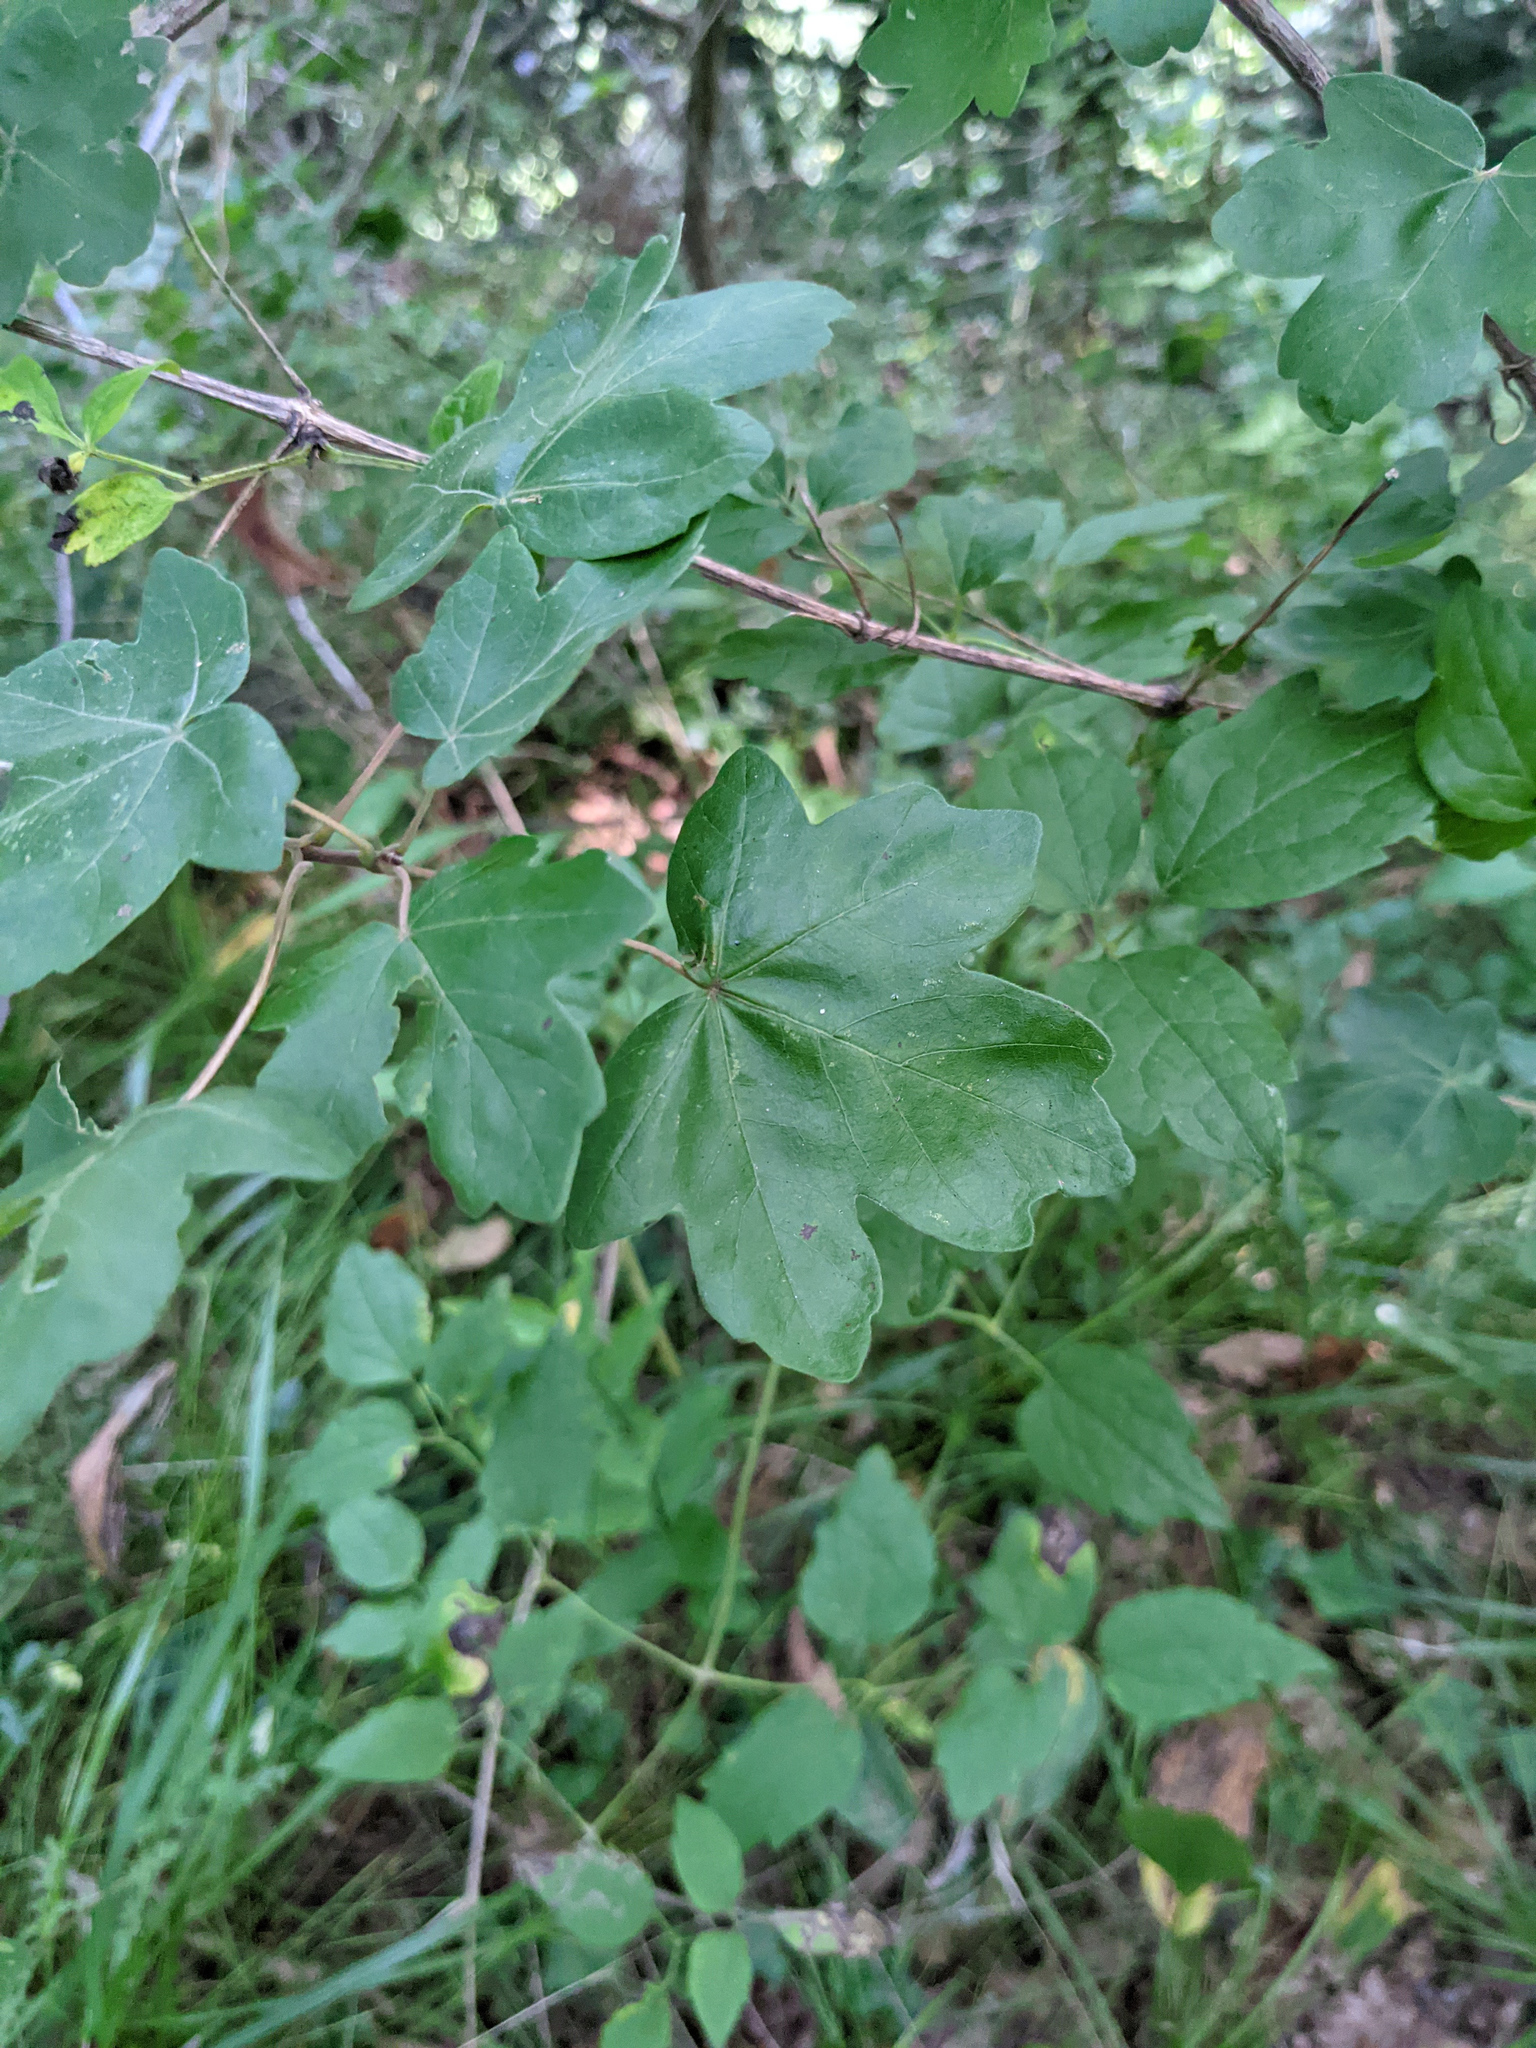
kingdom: Plantae
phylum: Tracheophyta
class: Magnoliopsida
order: Sapindales
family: Sapindaceae
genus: Acer
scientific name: Acer campestre
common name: Field maple
